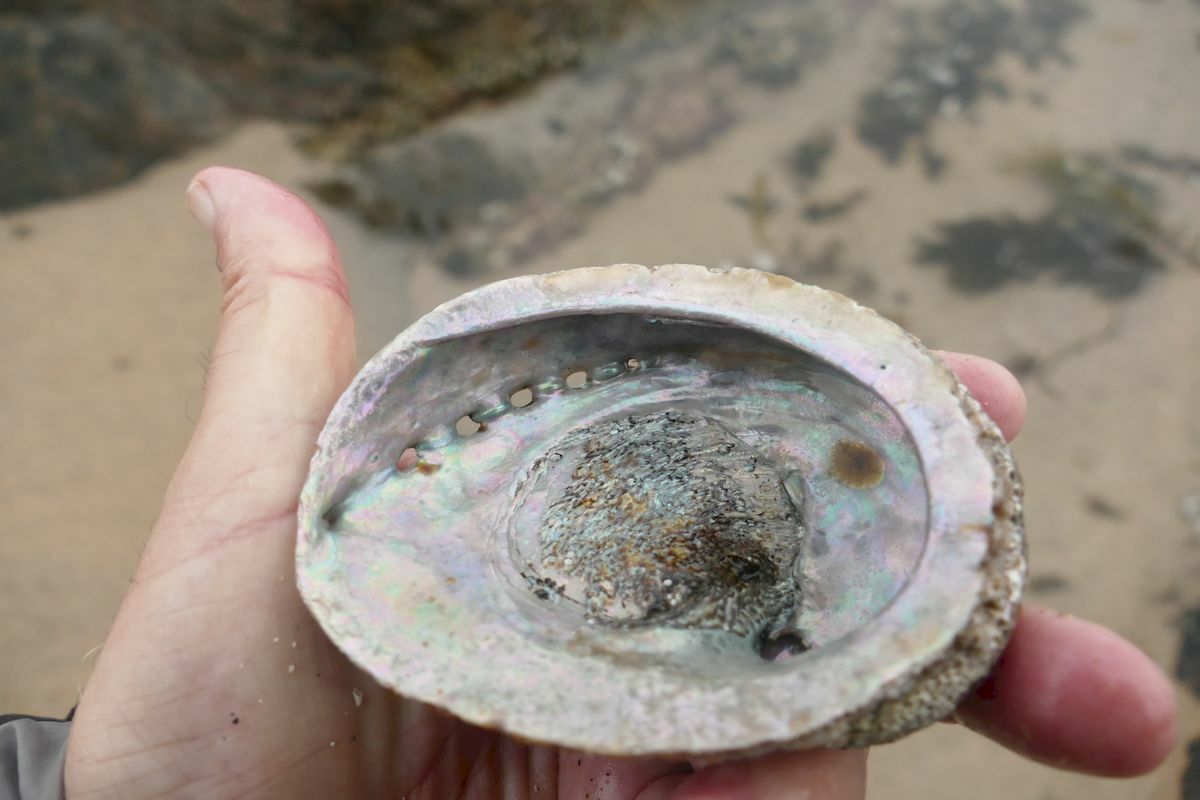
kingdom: Animalia
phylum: Mollusca
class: Gastropoda
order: Lepetellida
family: Haliotidae
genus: Haliotis
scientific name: Haliotis rubra
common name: Blacklip abalone
